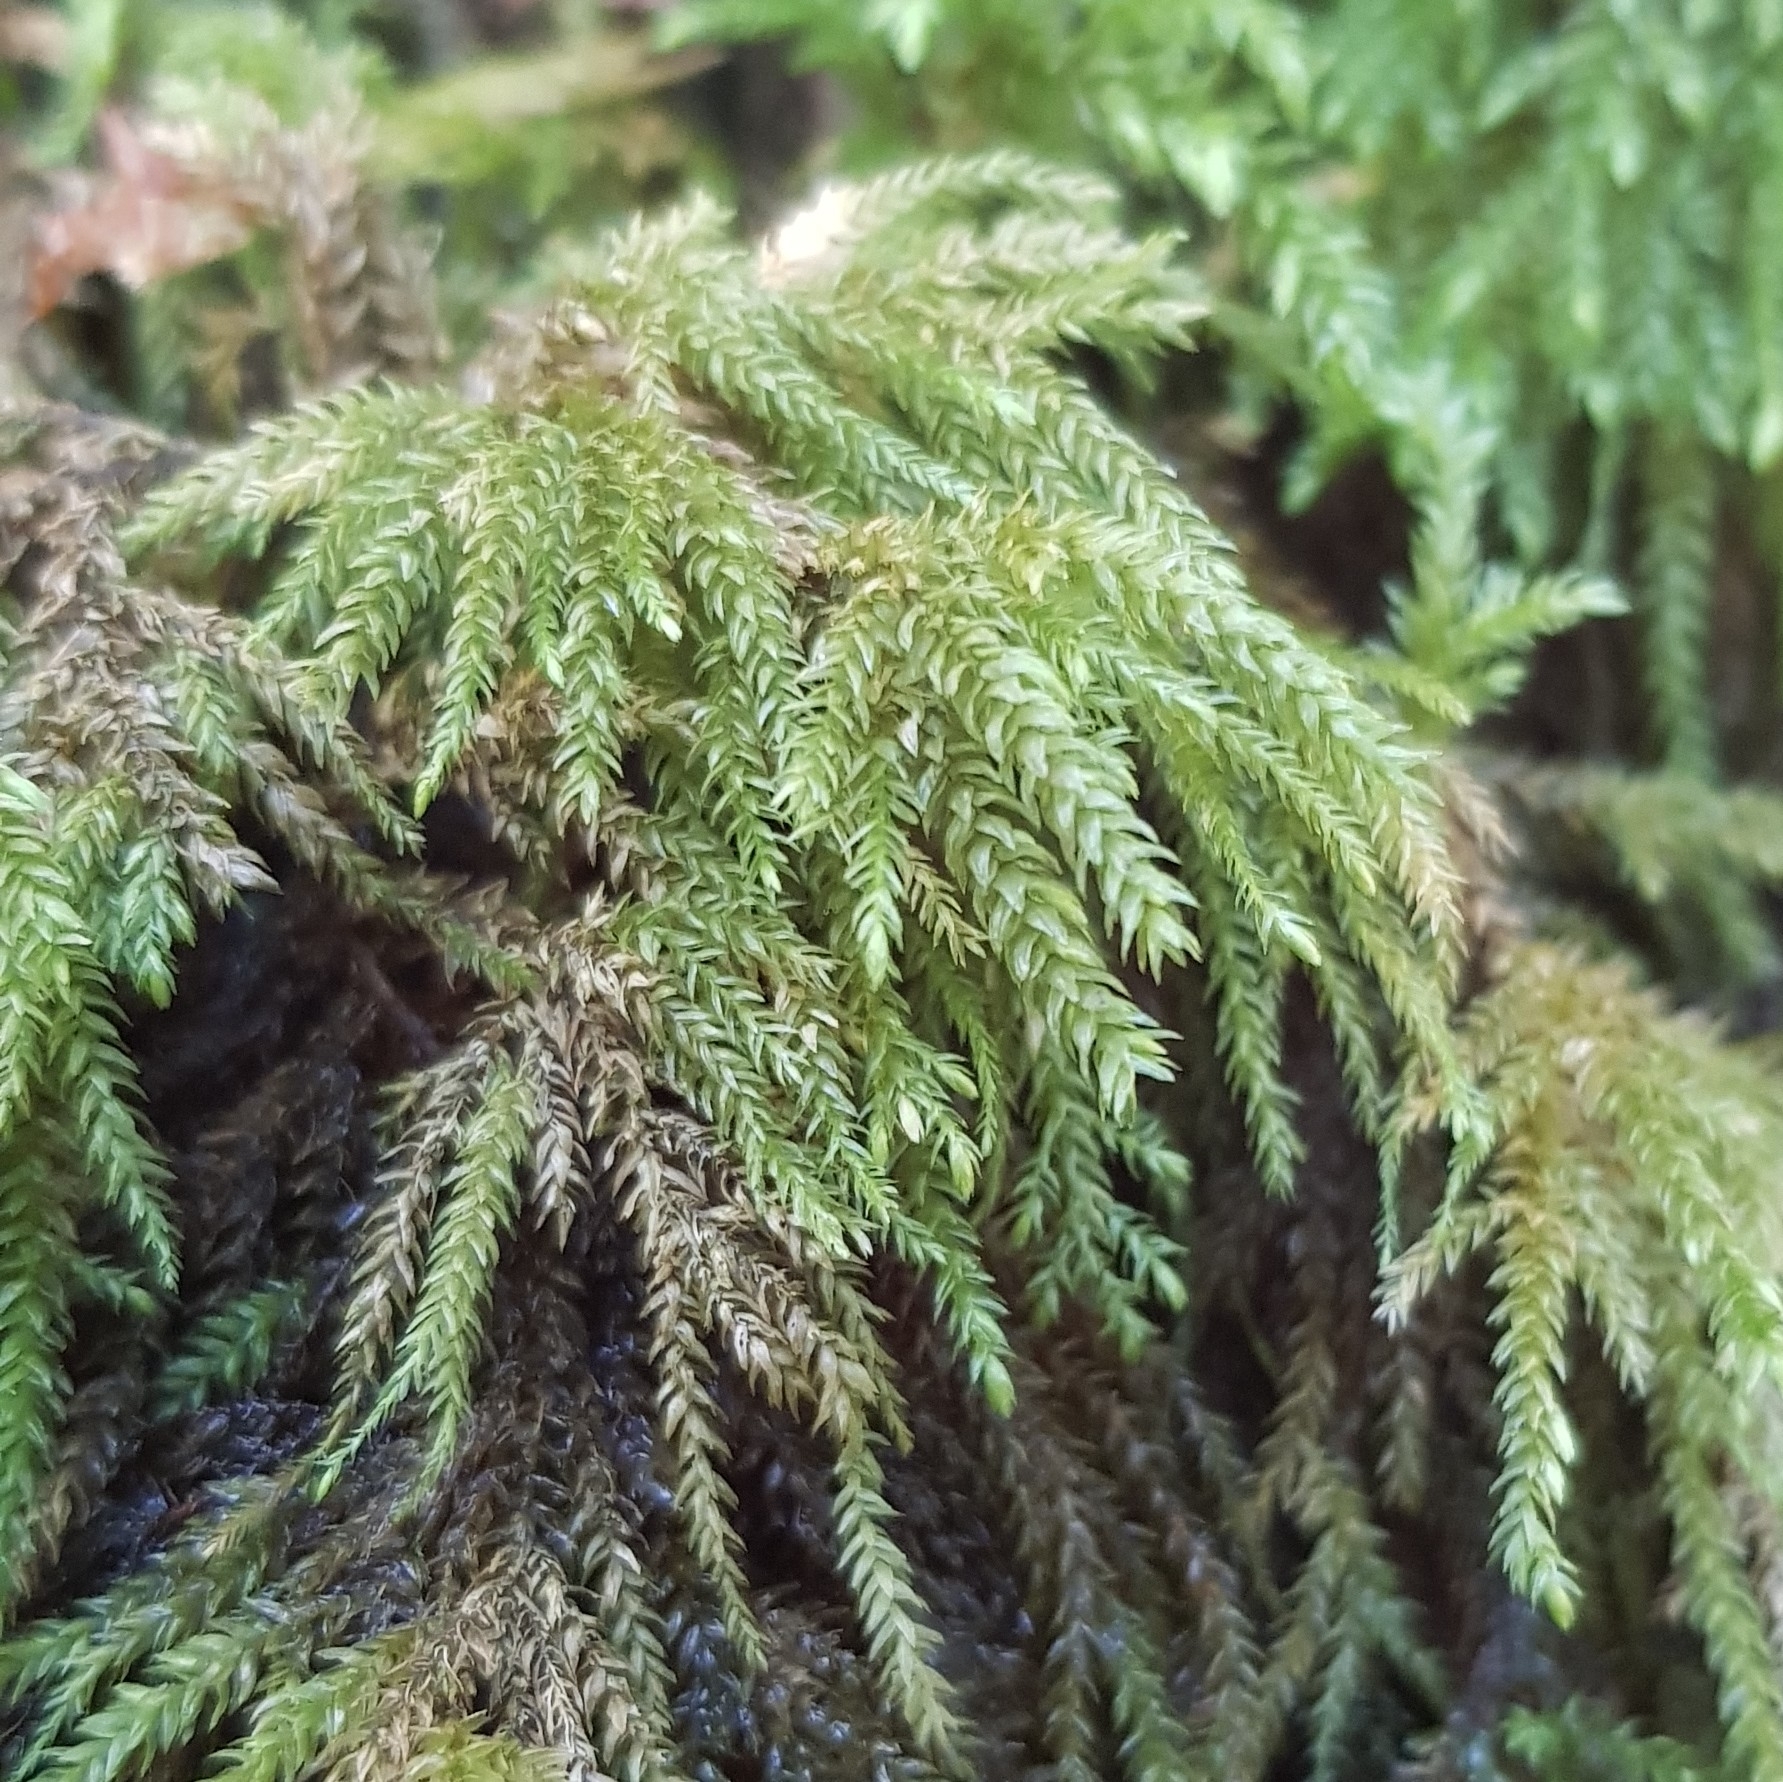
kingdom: Plantae
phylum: Bryophyta
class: Bryopsida
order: Hypnales
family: Neckeraceae
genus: Thamnobryum
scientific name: Thamnobryum alopecurum
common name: Fox-tail feather-moss
